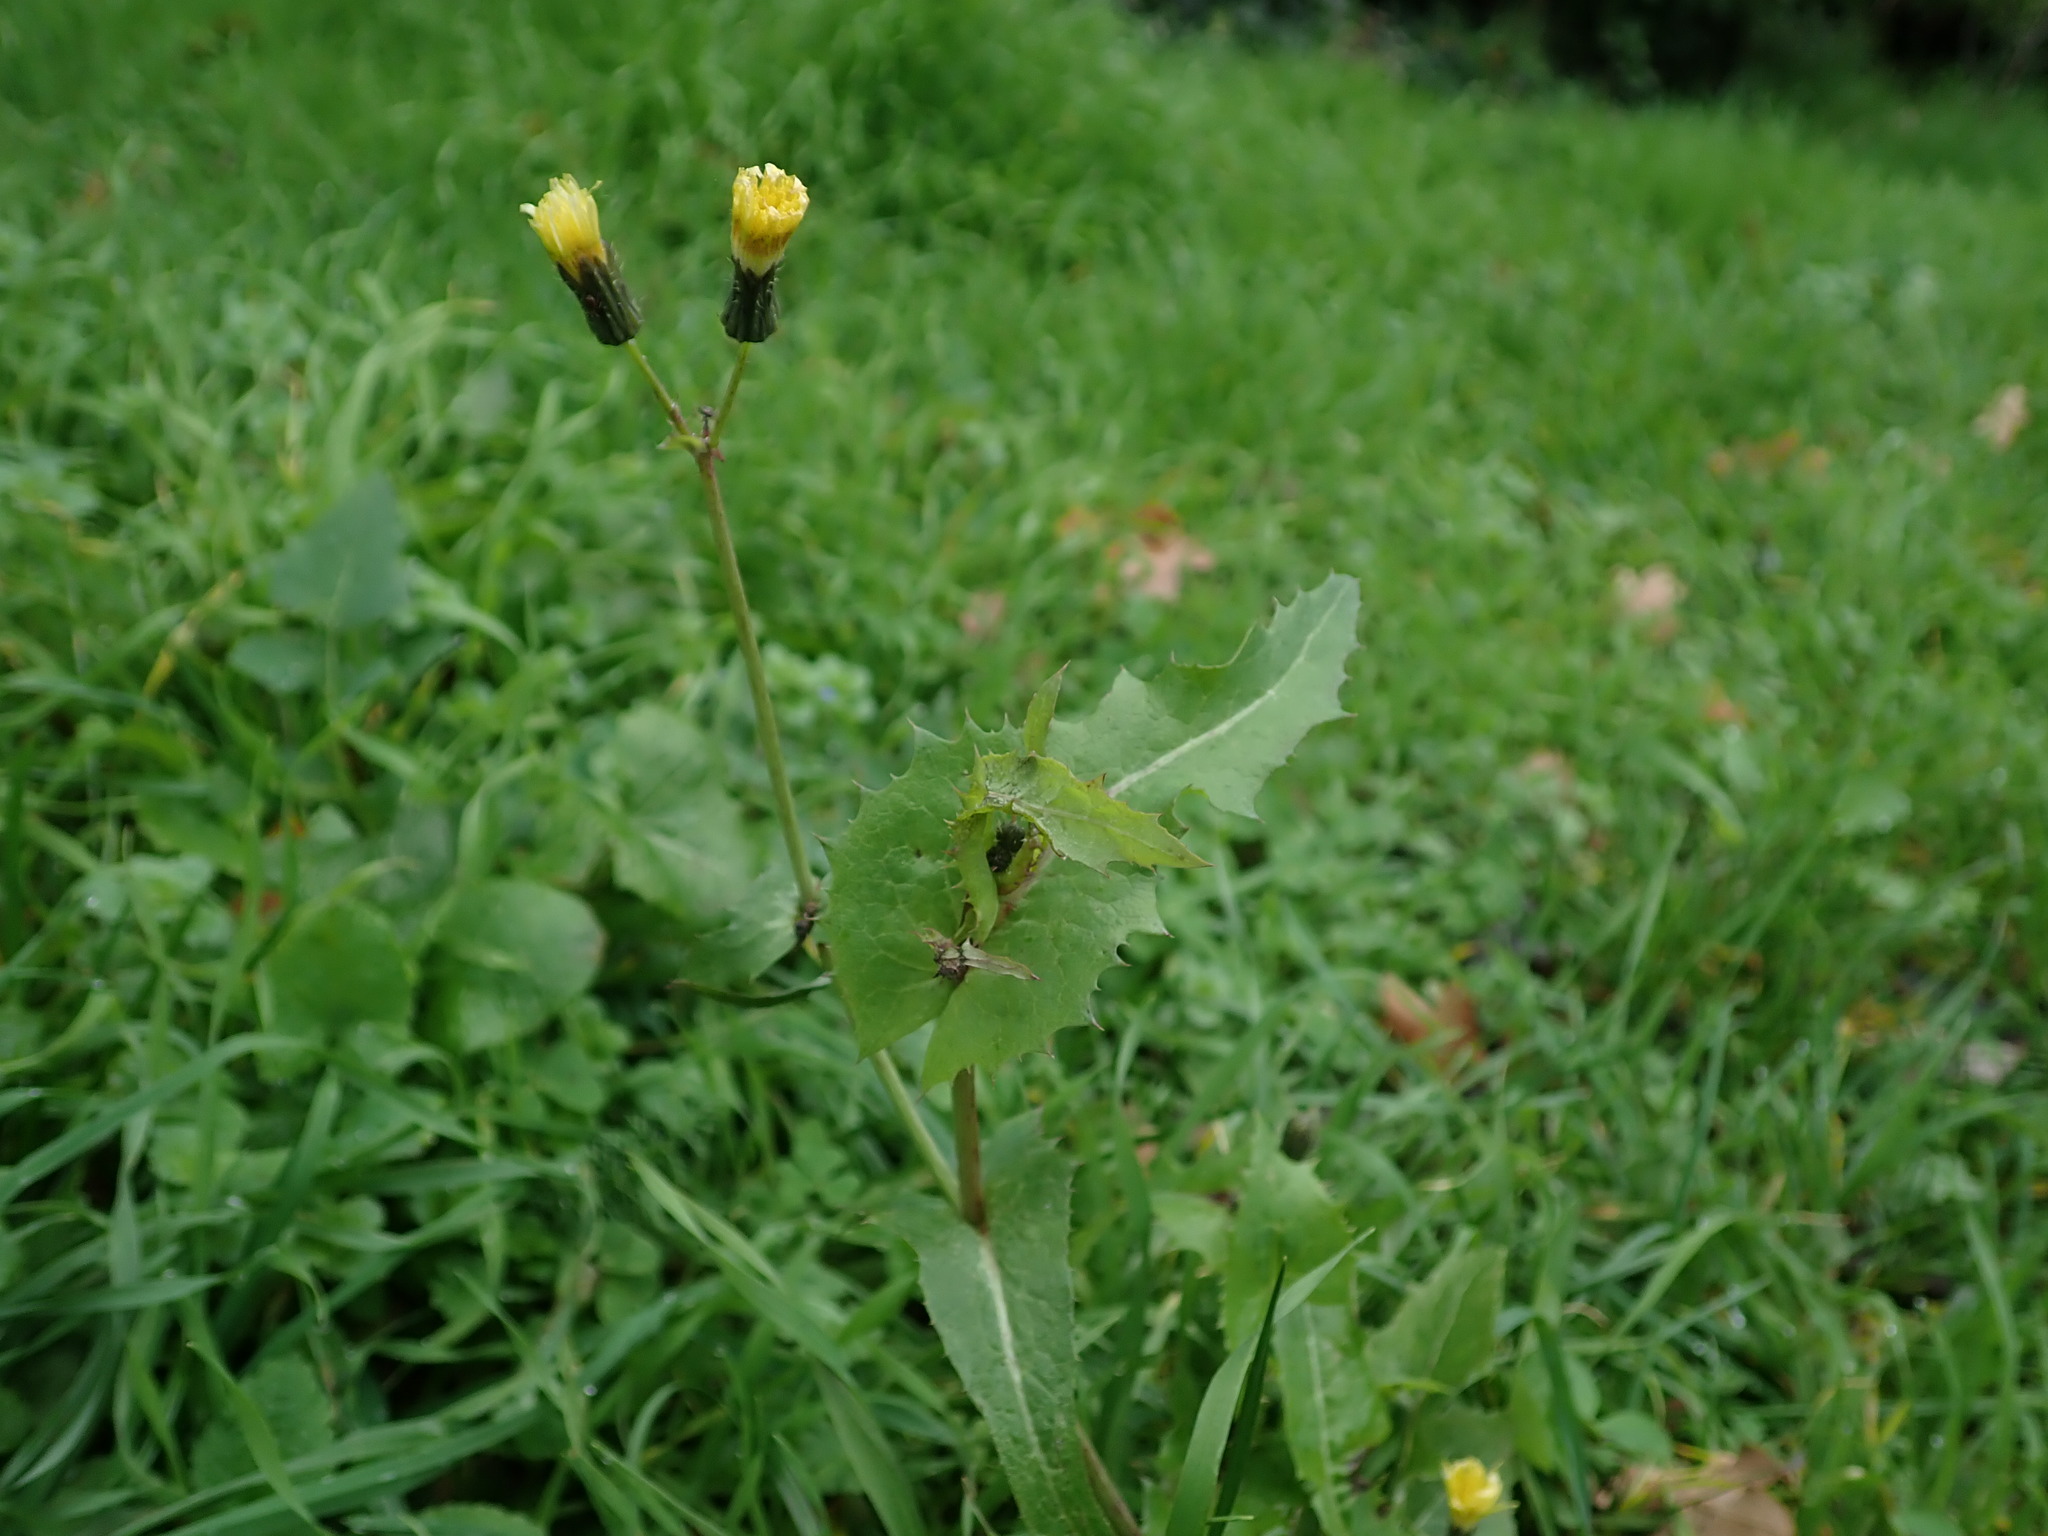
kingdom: Plantae
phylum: Tracheophyta
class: Magnoliopsida
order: Asterales
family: Asteraceae
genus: Sonchus
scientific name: Sonchus oleraceus
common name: Common sowthistle
